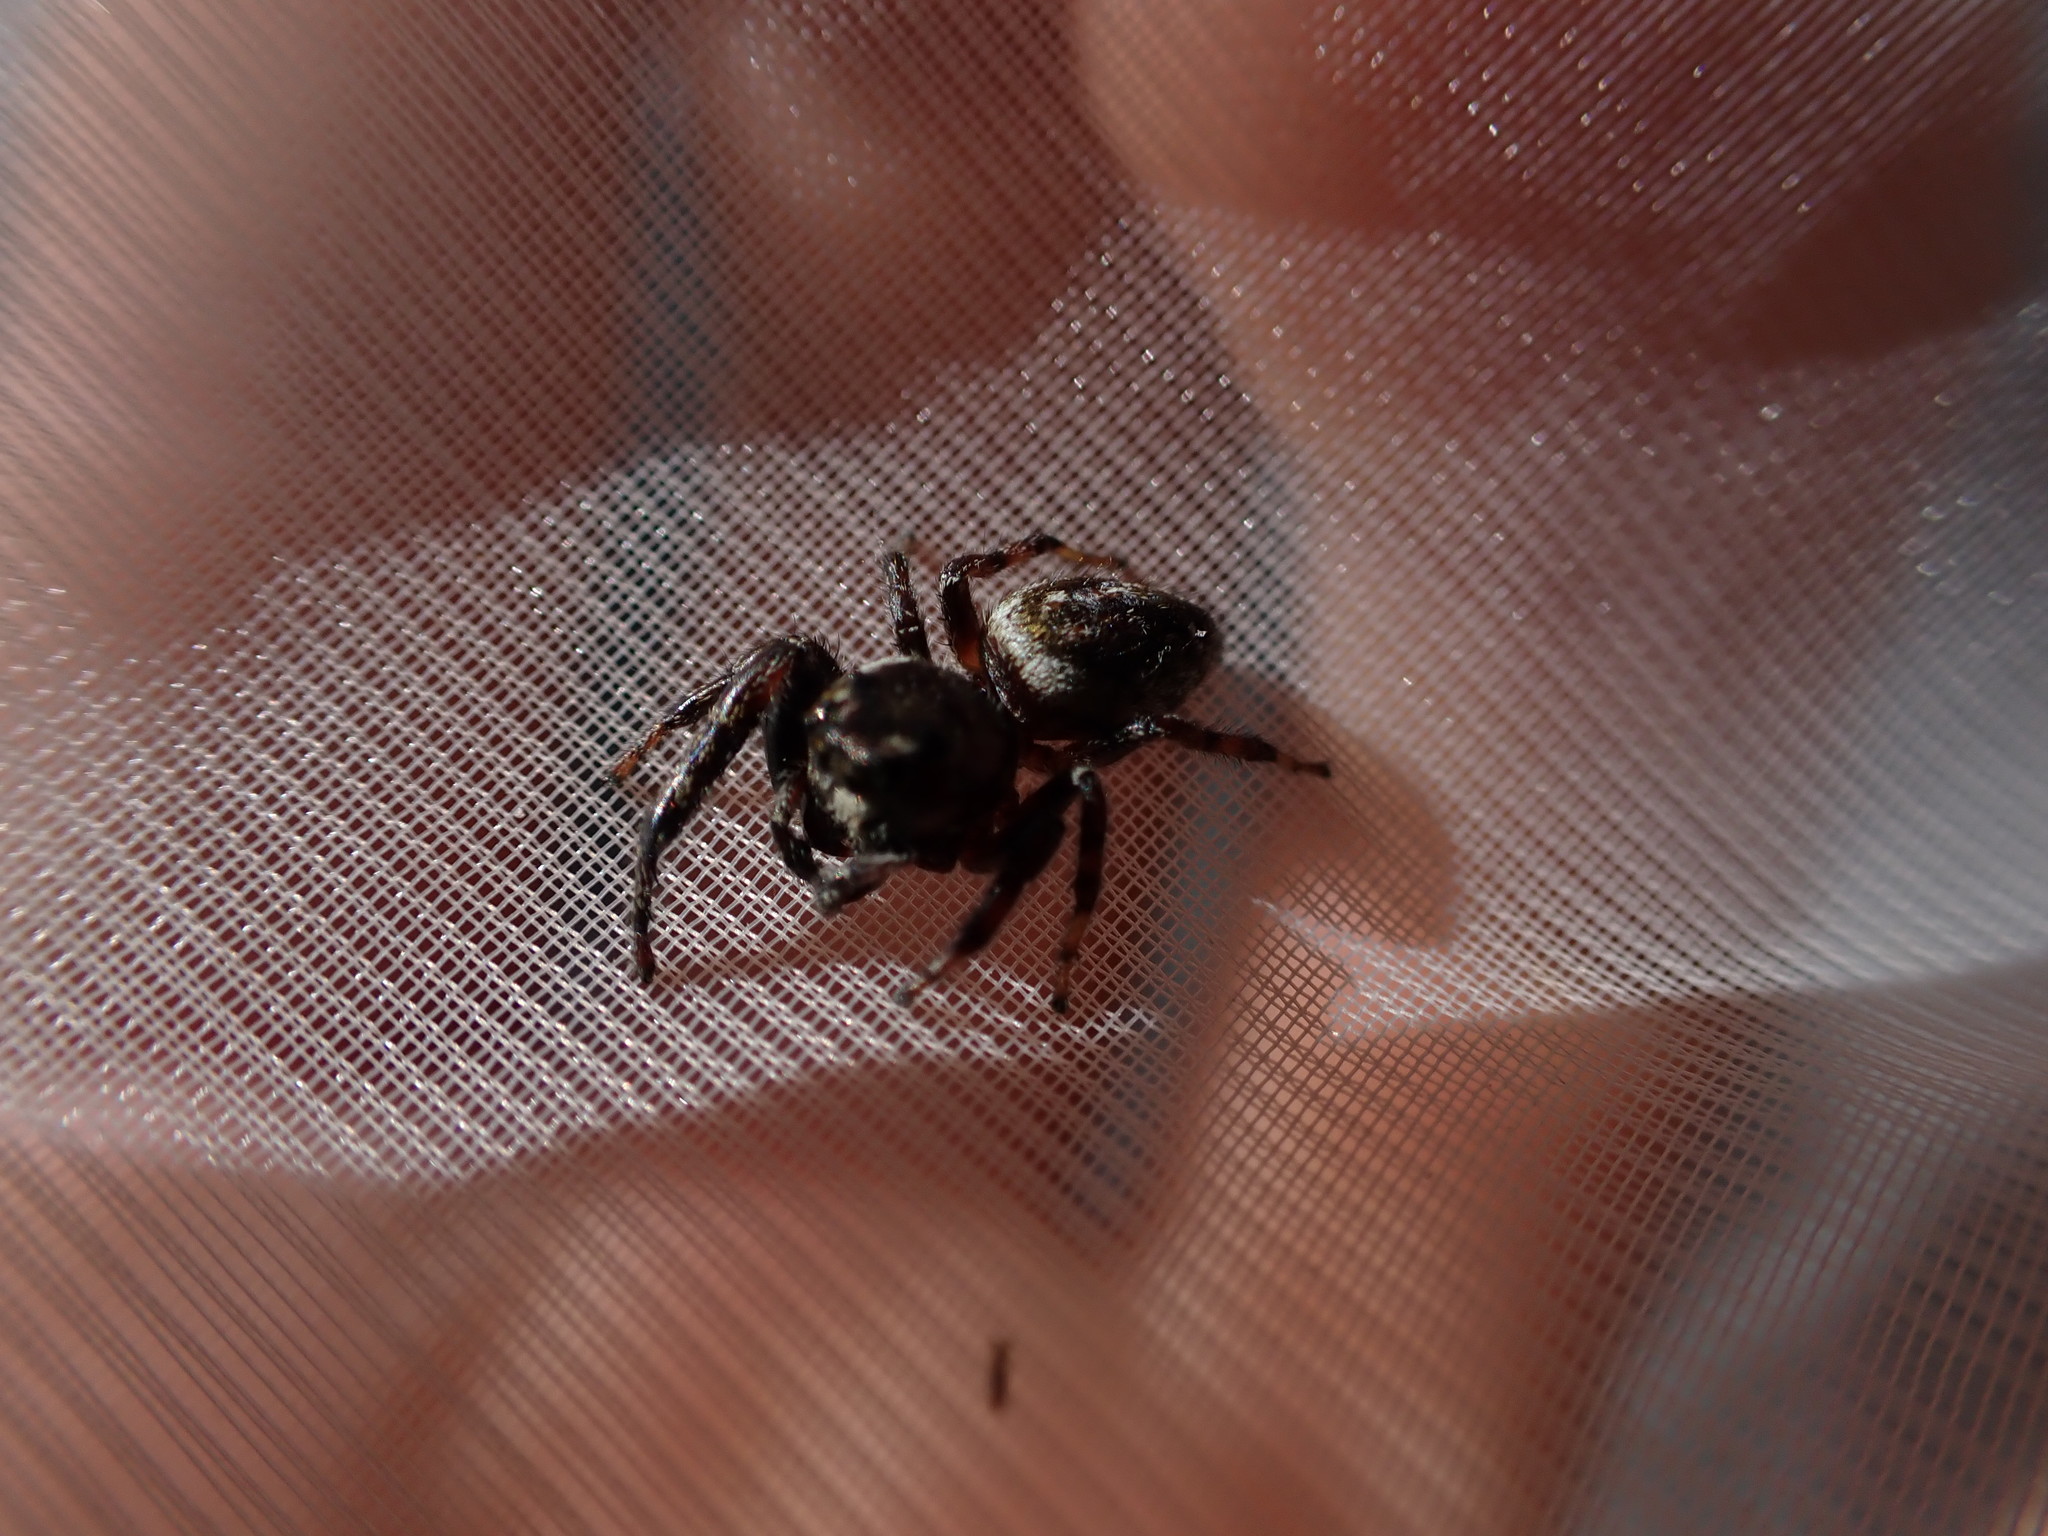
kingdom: Animalia
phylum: Arthropoda
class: Arachnida
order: Araneae
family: Salticidae
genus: Macaroeris
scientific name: Macaroeris nidicolens
